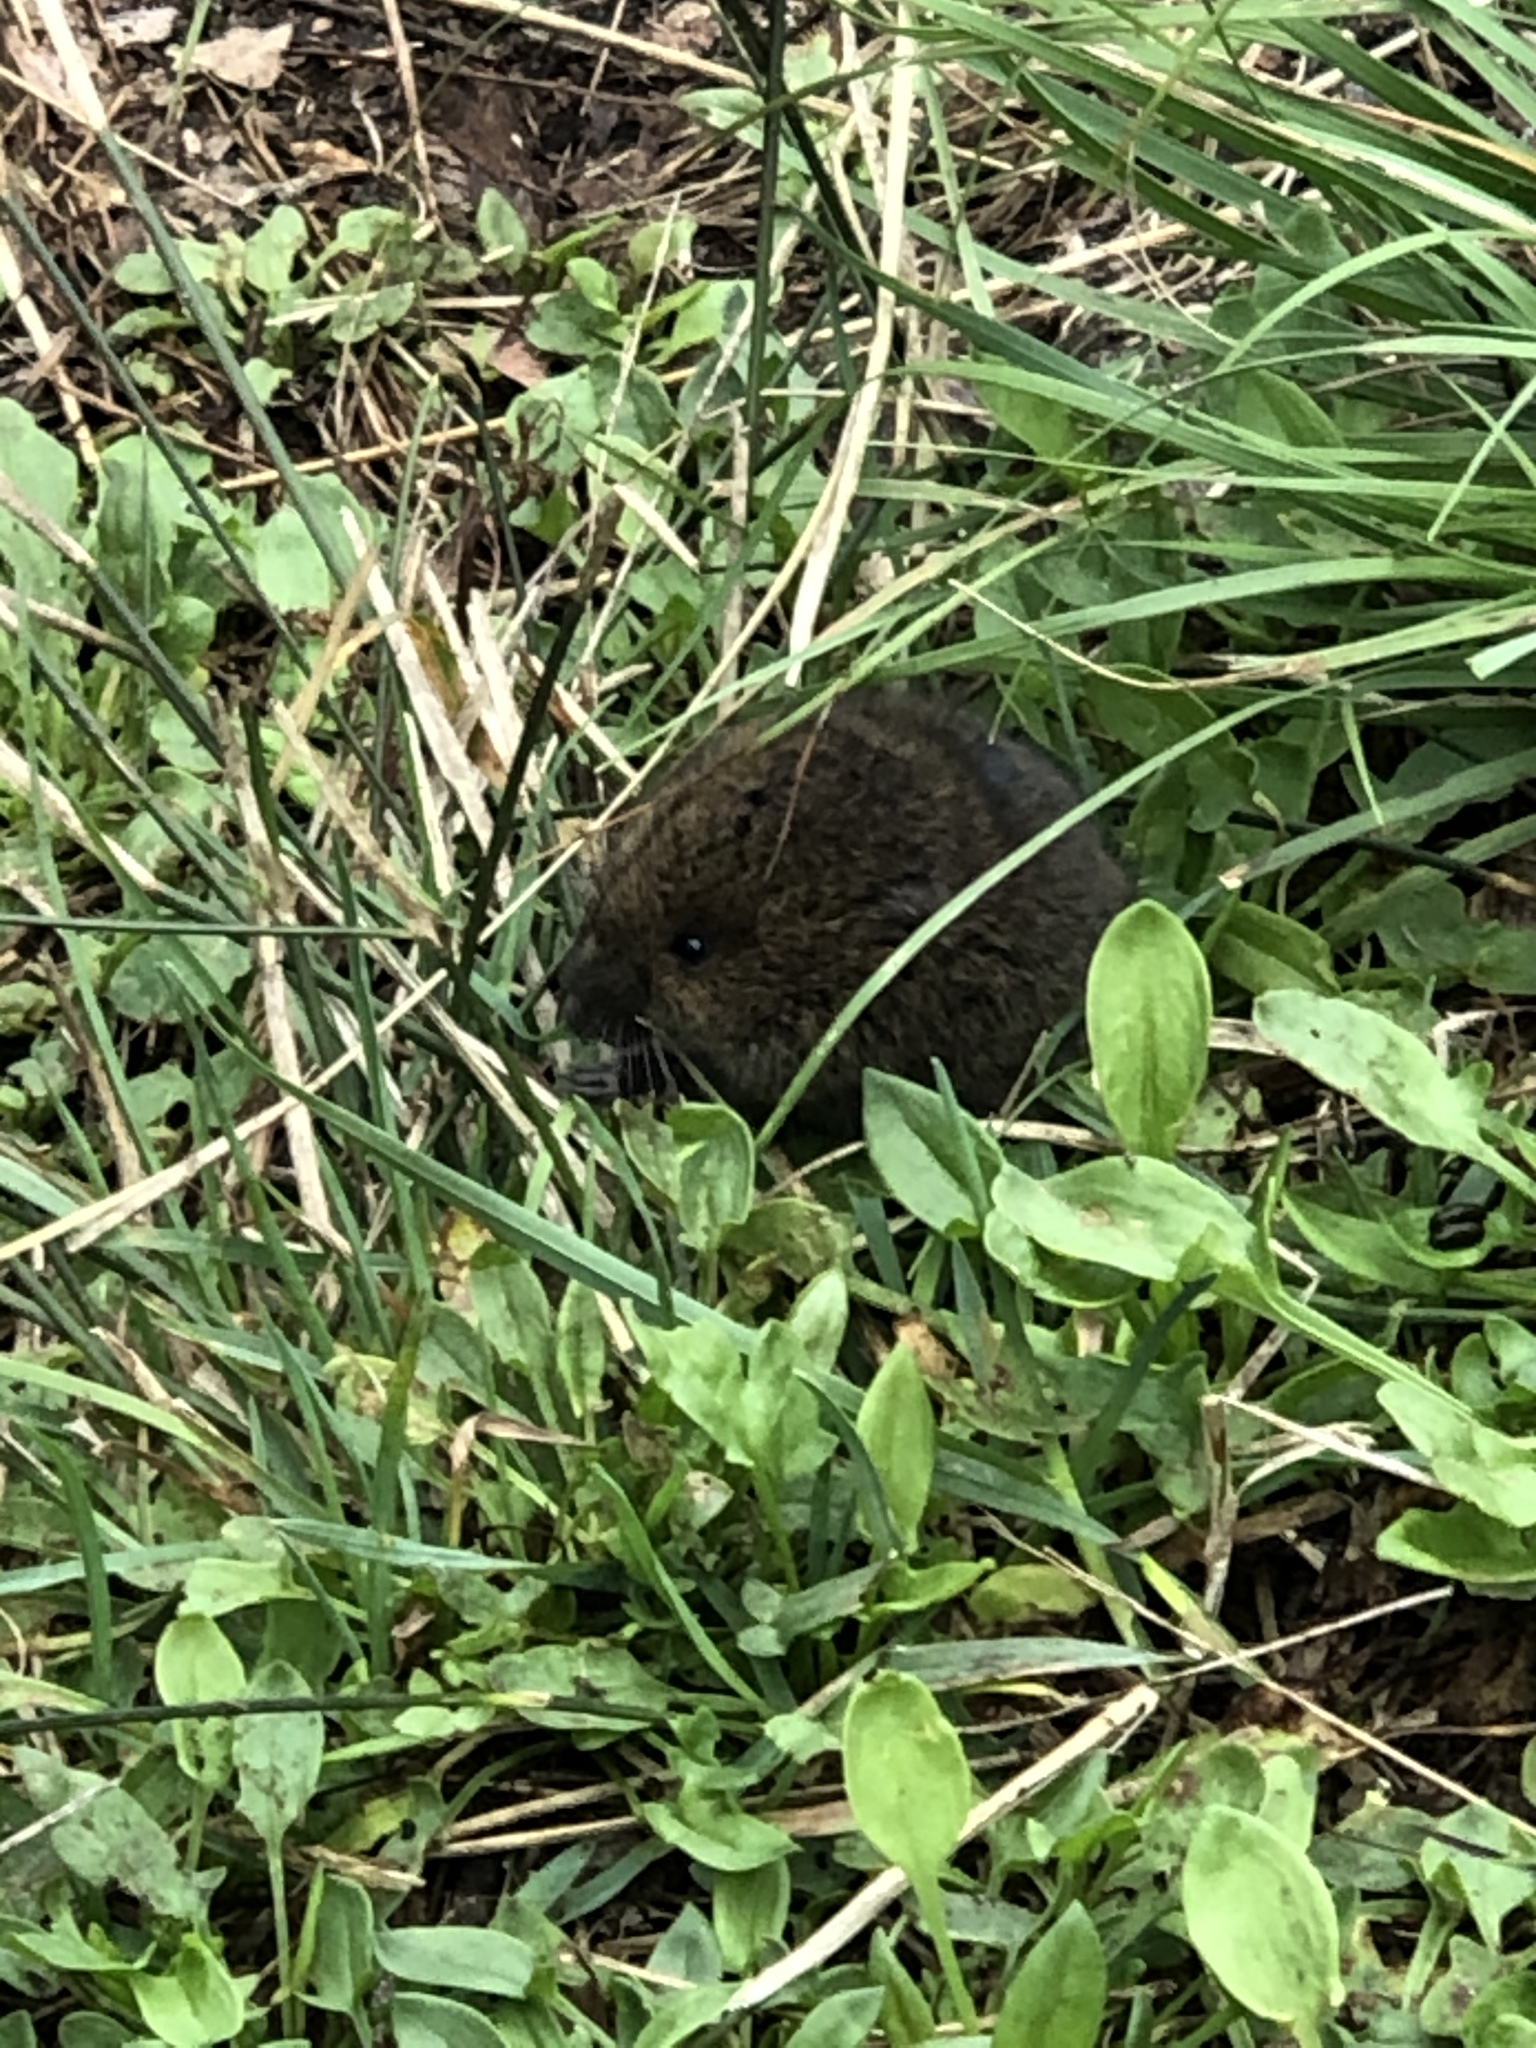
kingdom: Animalia
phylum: Chordata
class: Mammalia
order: Rodentia
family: Cricetidae
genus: Microtus
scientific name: Microtus pennsylvanicus
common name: Meadow vole
